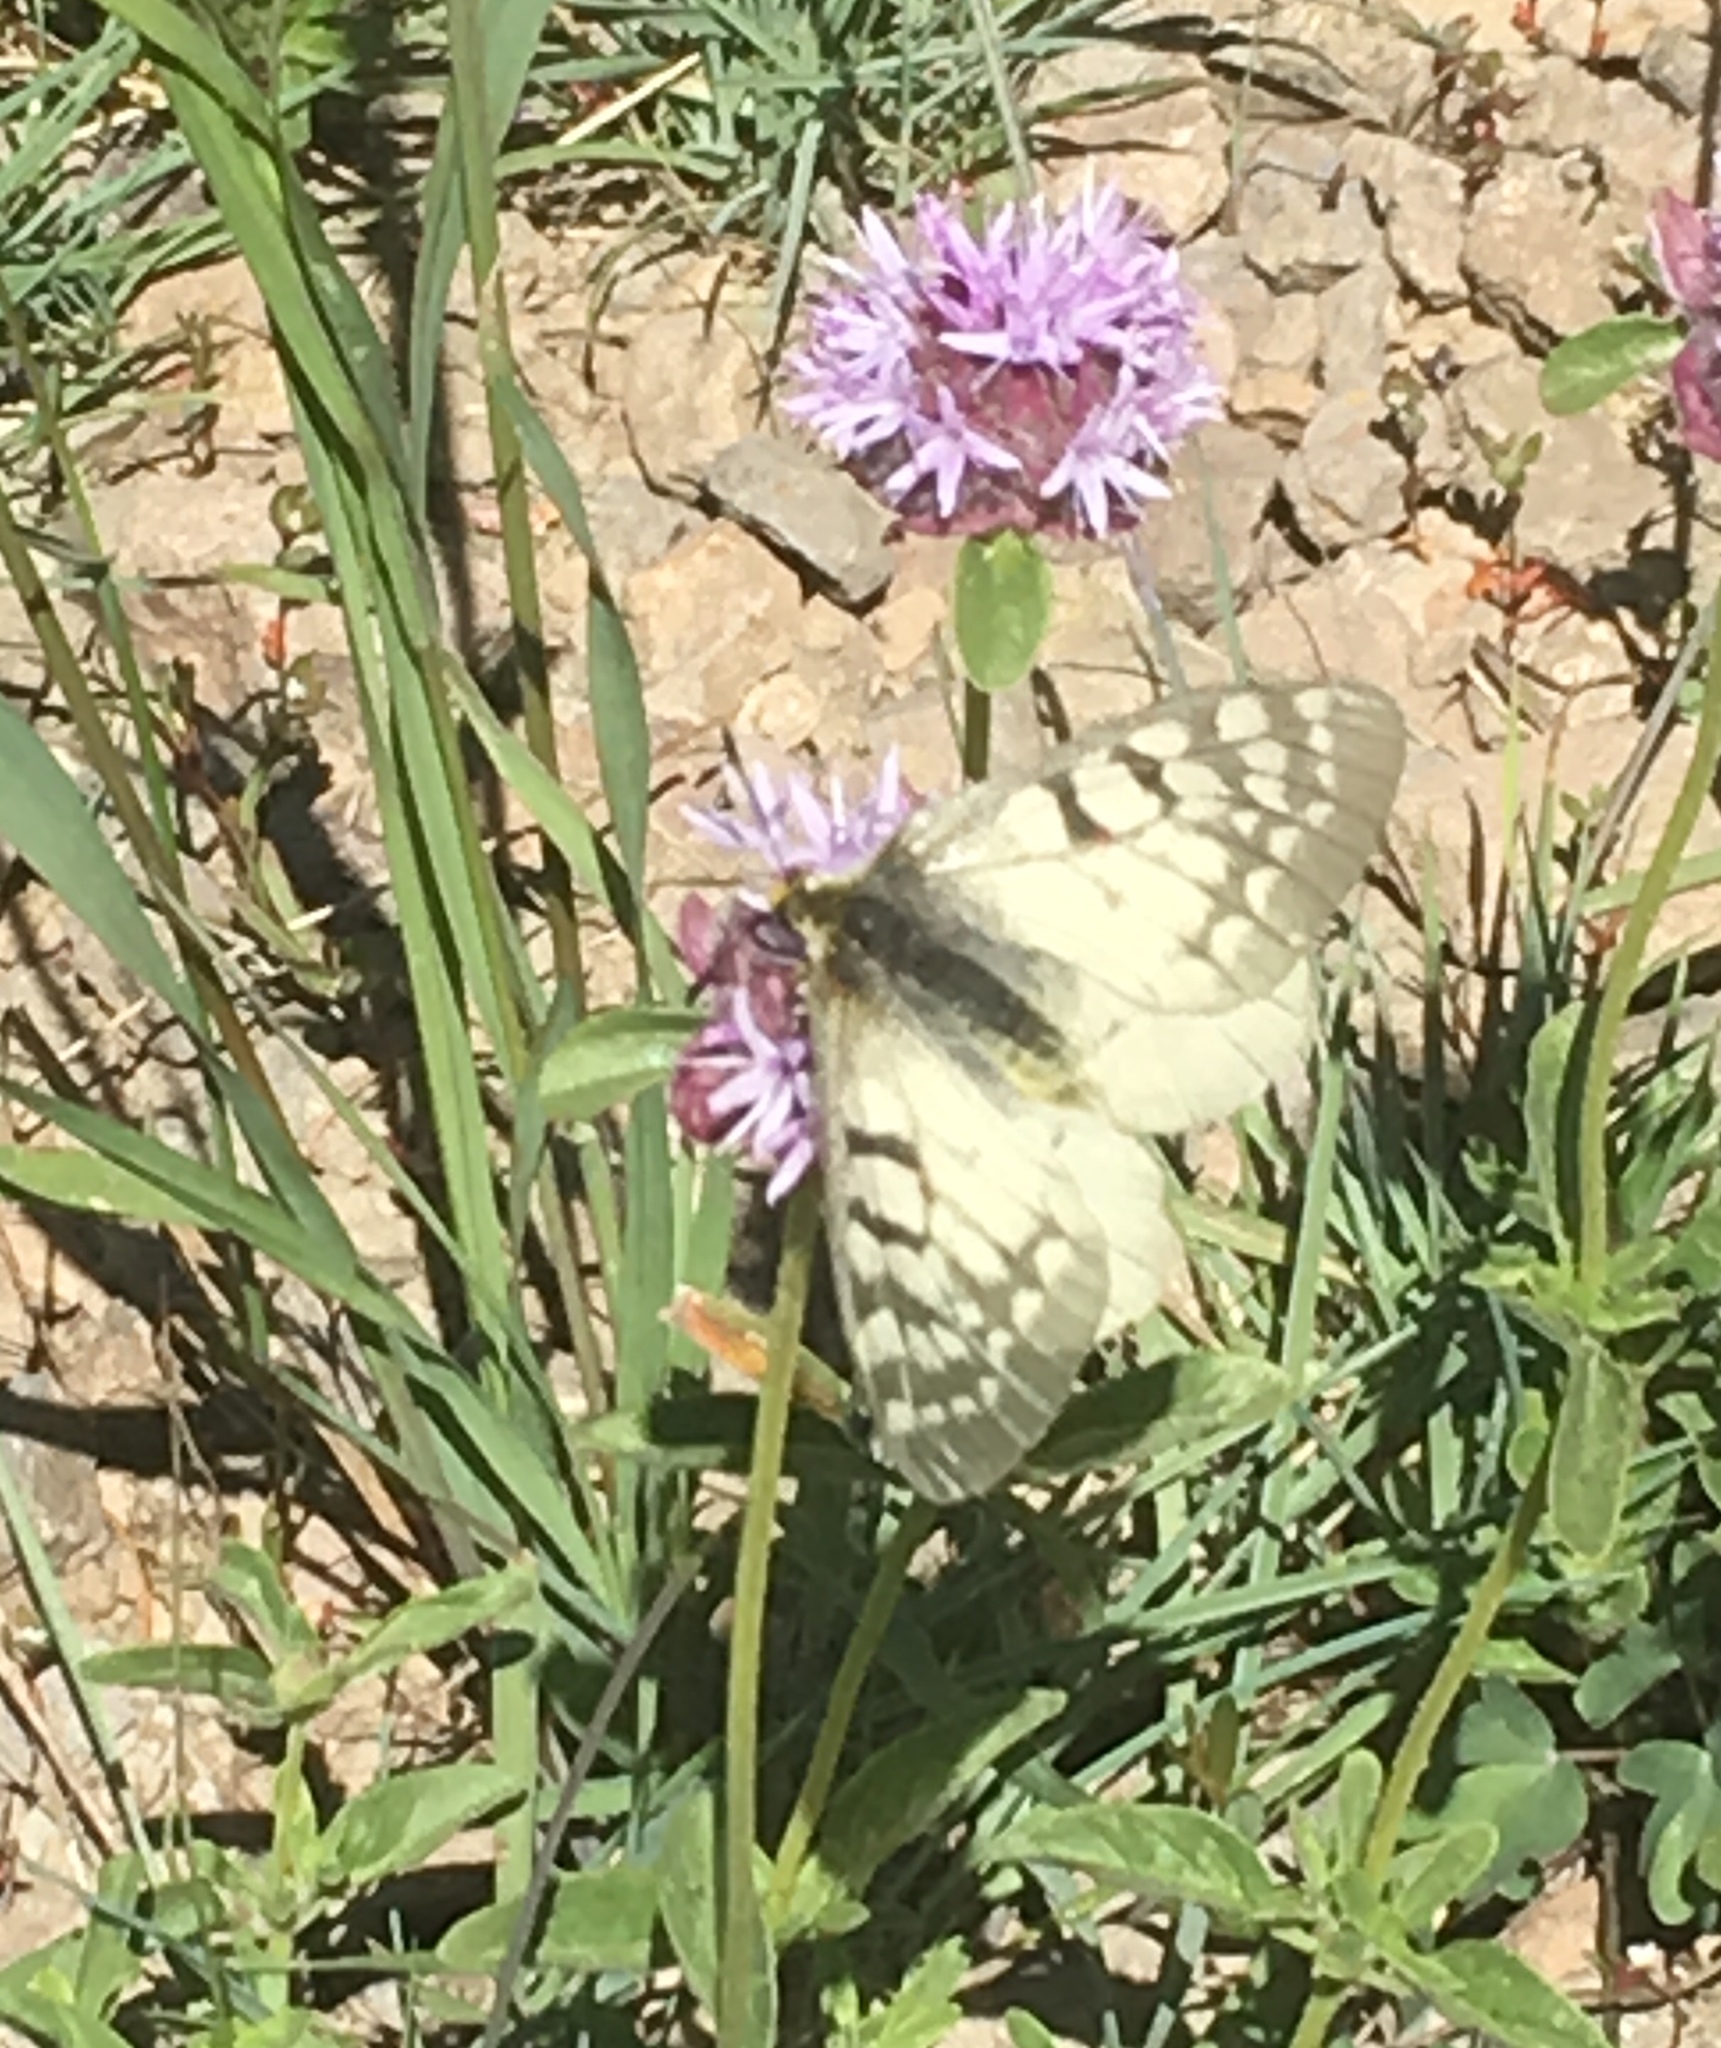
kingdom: Animalia
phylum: Arthropoda
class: Insecta
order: Lepidoptera
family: Papilionidae
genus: Parnassius
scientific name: Parnassius clodius
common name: American apollo
